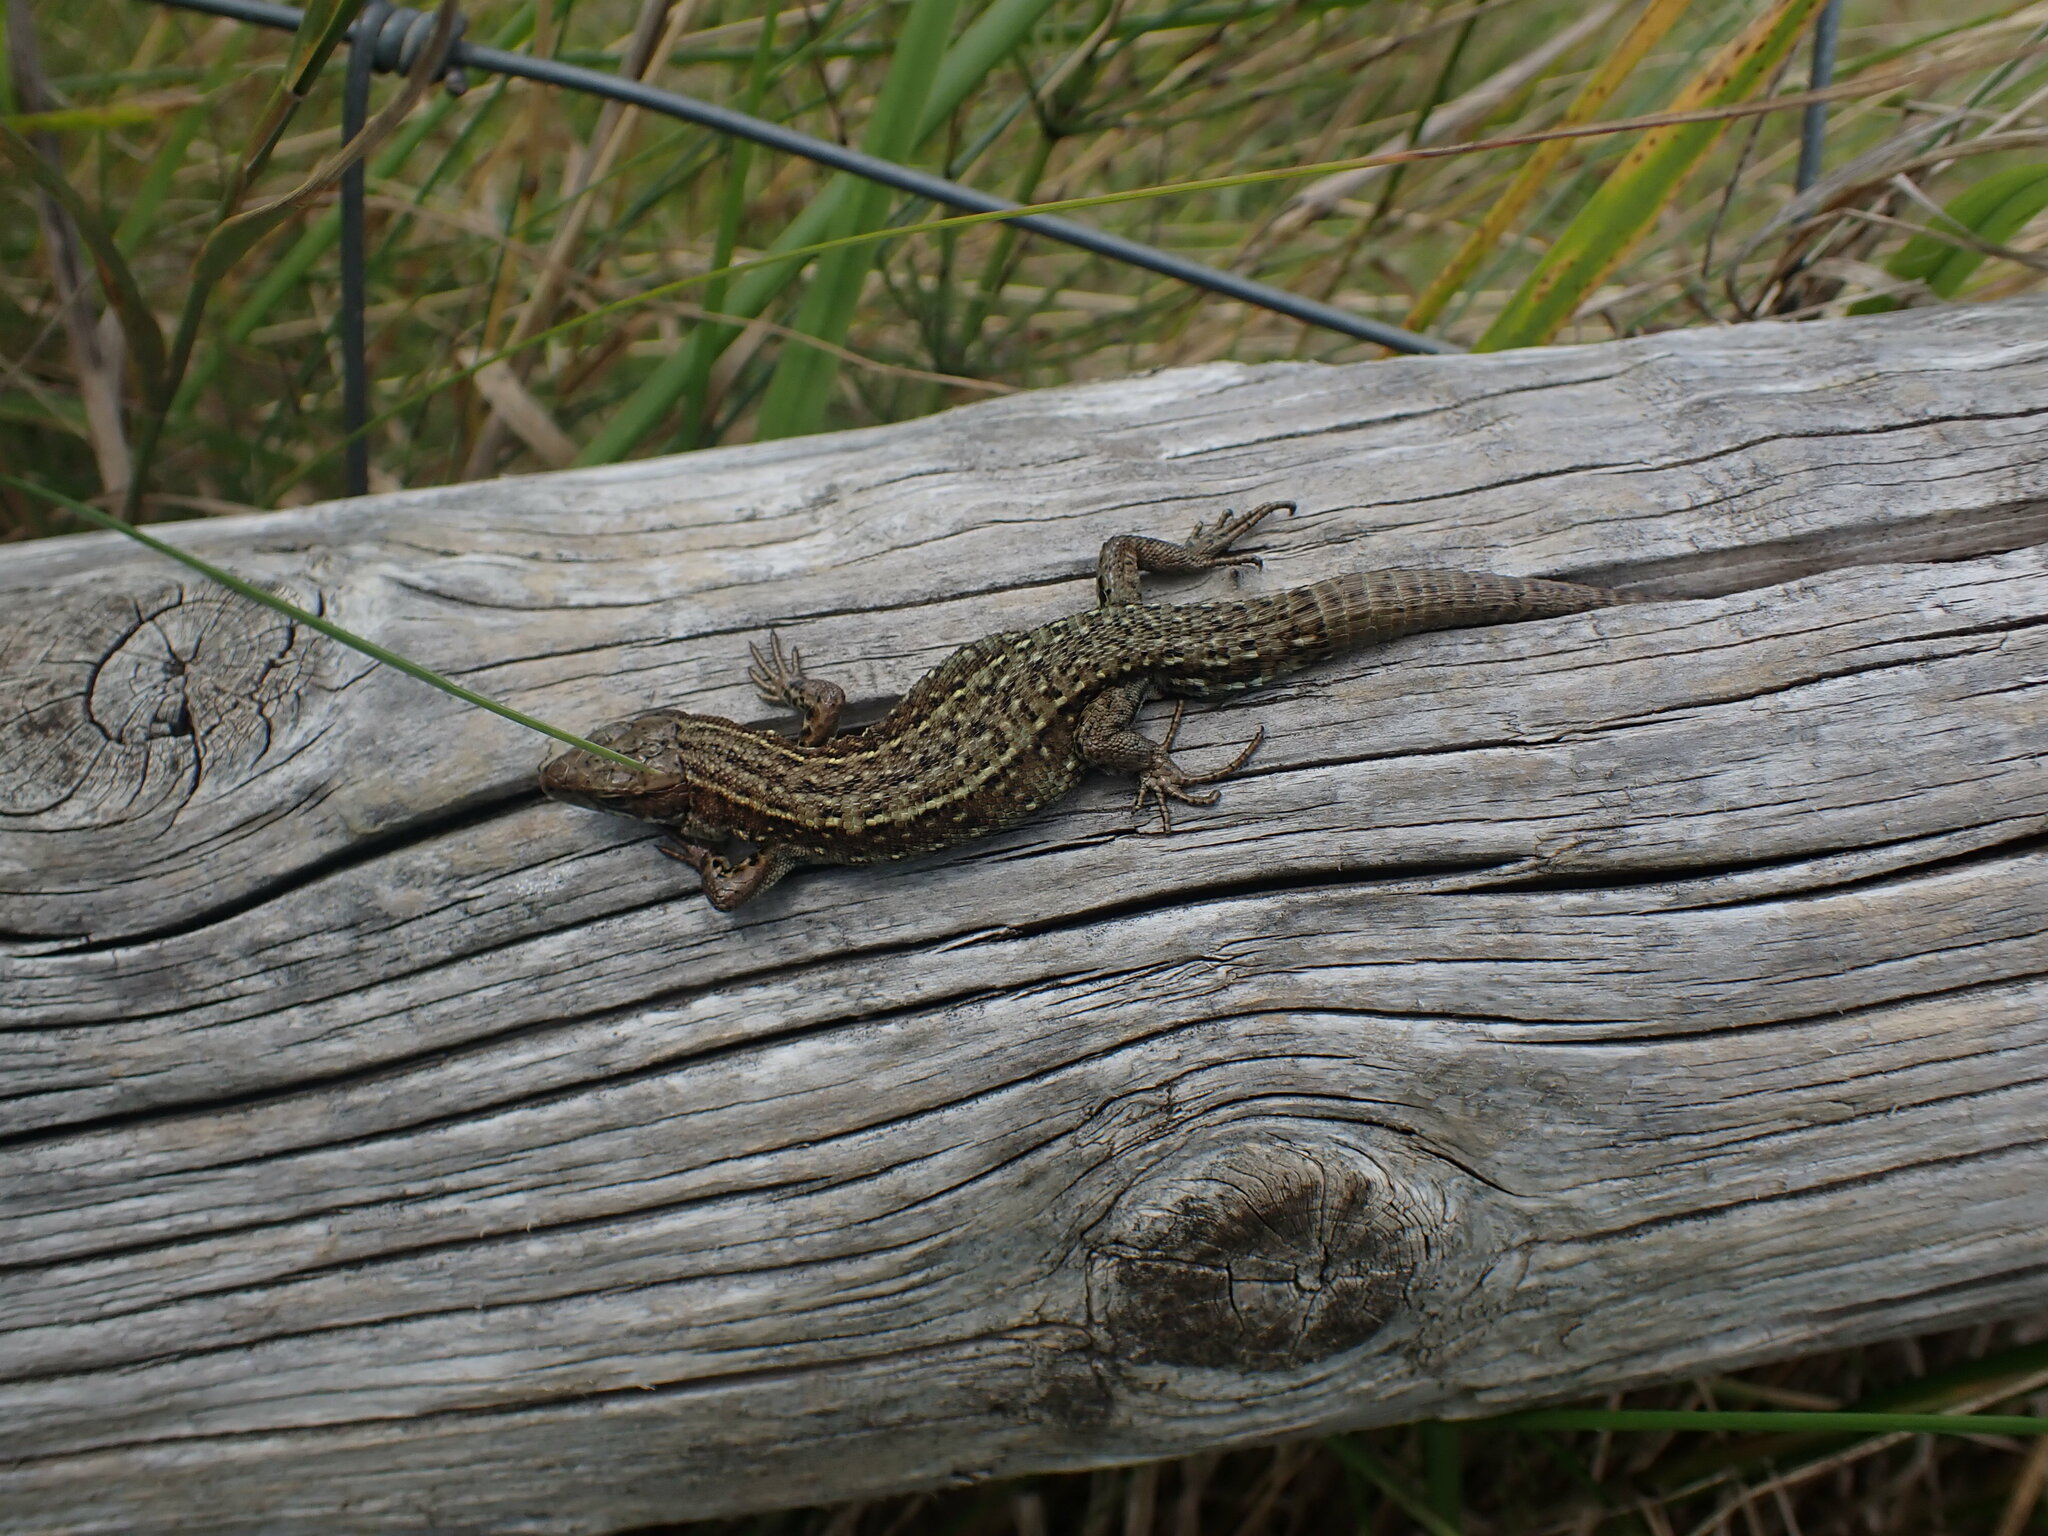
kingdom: Animalia
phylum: Chordata
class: Squamata
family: Lacertidae
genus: Zootoca
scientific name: Zootoca vivipara
